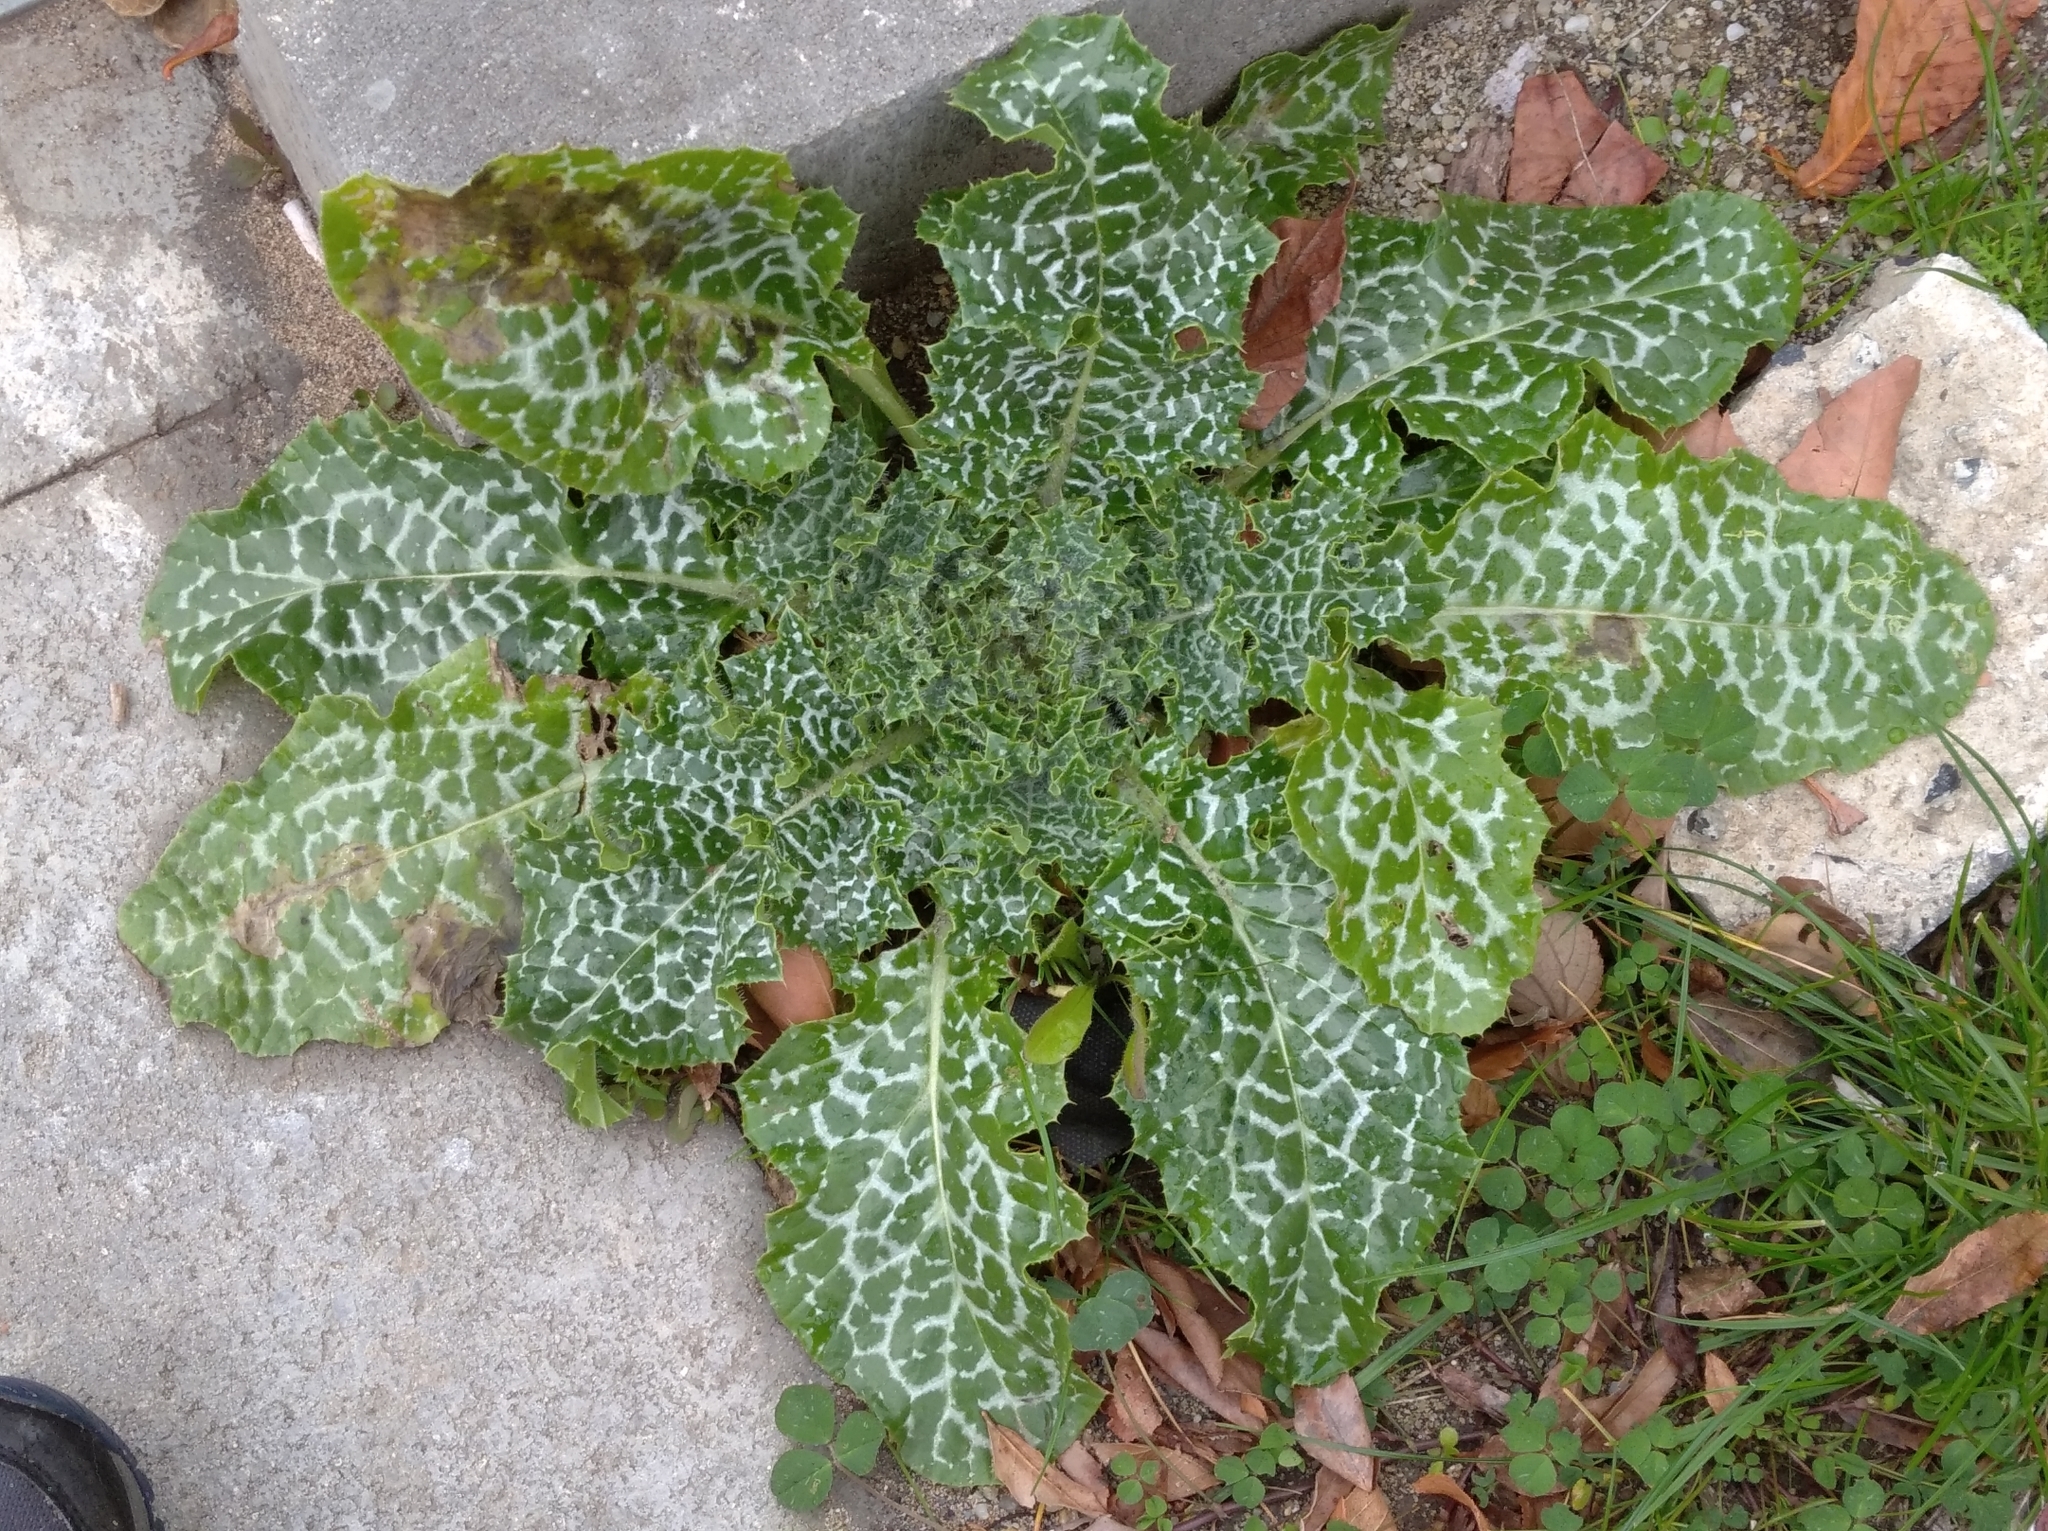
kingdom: Plantae
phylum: Tracheophyta
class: Magnoliopsida
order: Asterales
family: Asteraceae
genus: Silybum
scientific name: Silybum marianum
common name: Milk thistle
